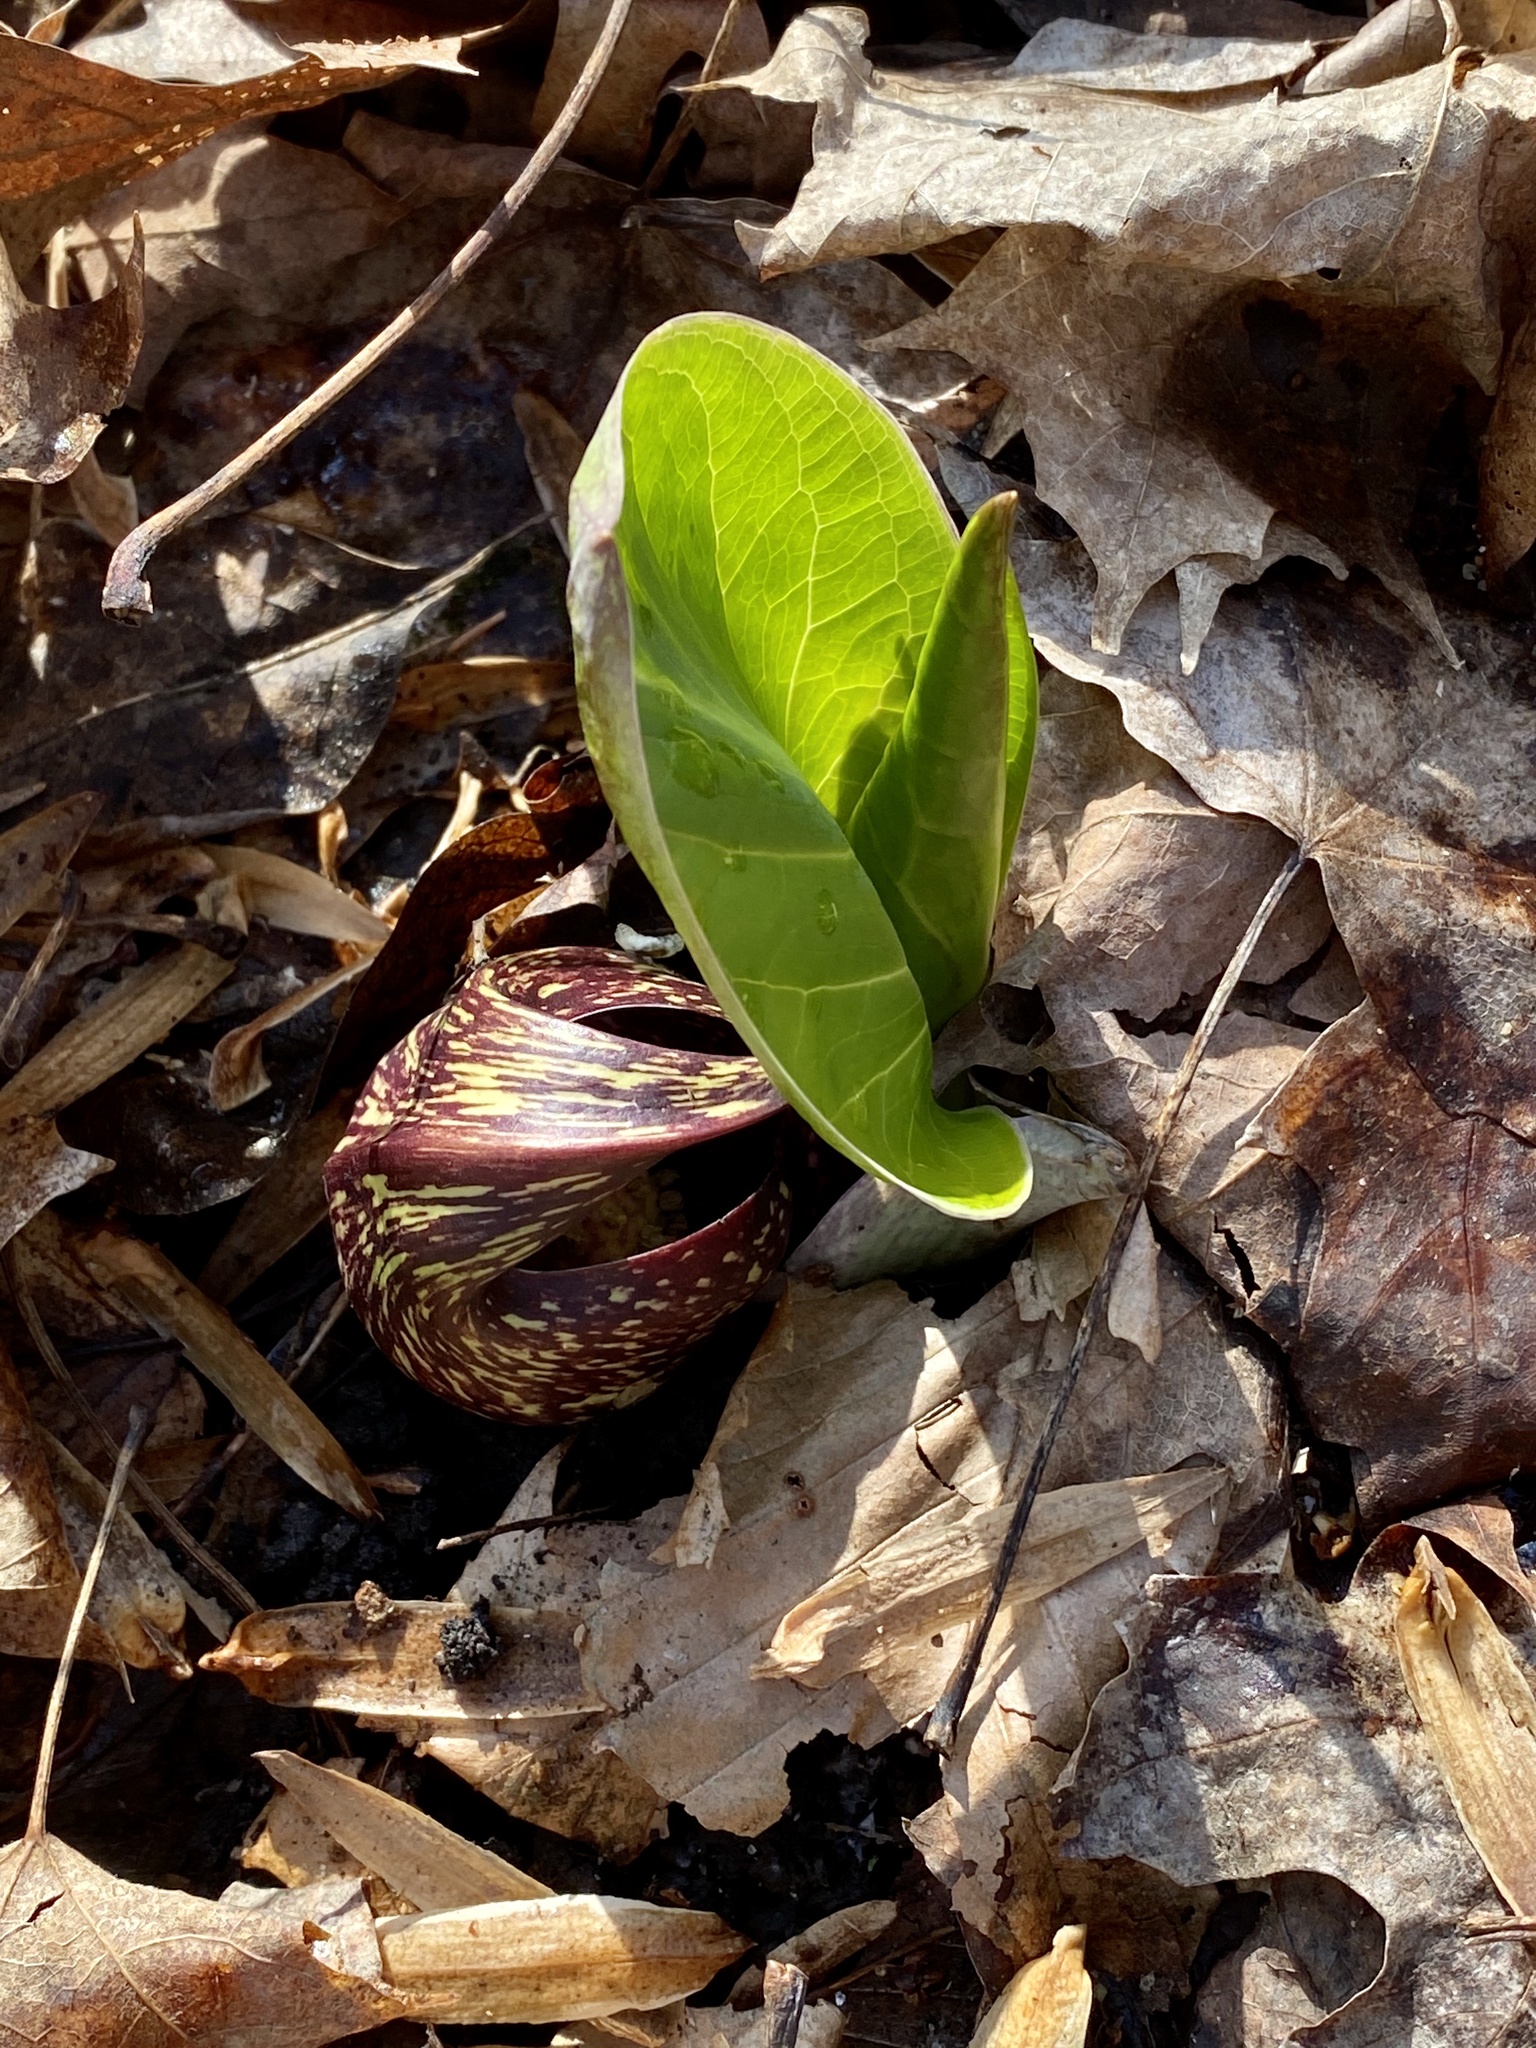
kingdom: Plantae
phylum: Tracheophyta
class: Liliopsida
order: Alismatales
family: Araceae
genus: Symplocarpus
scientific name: Symplocarpus foetidus
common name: Eastern skunk cabbage
